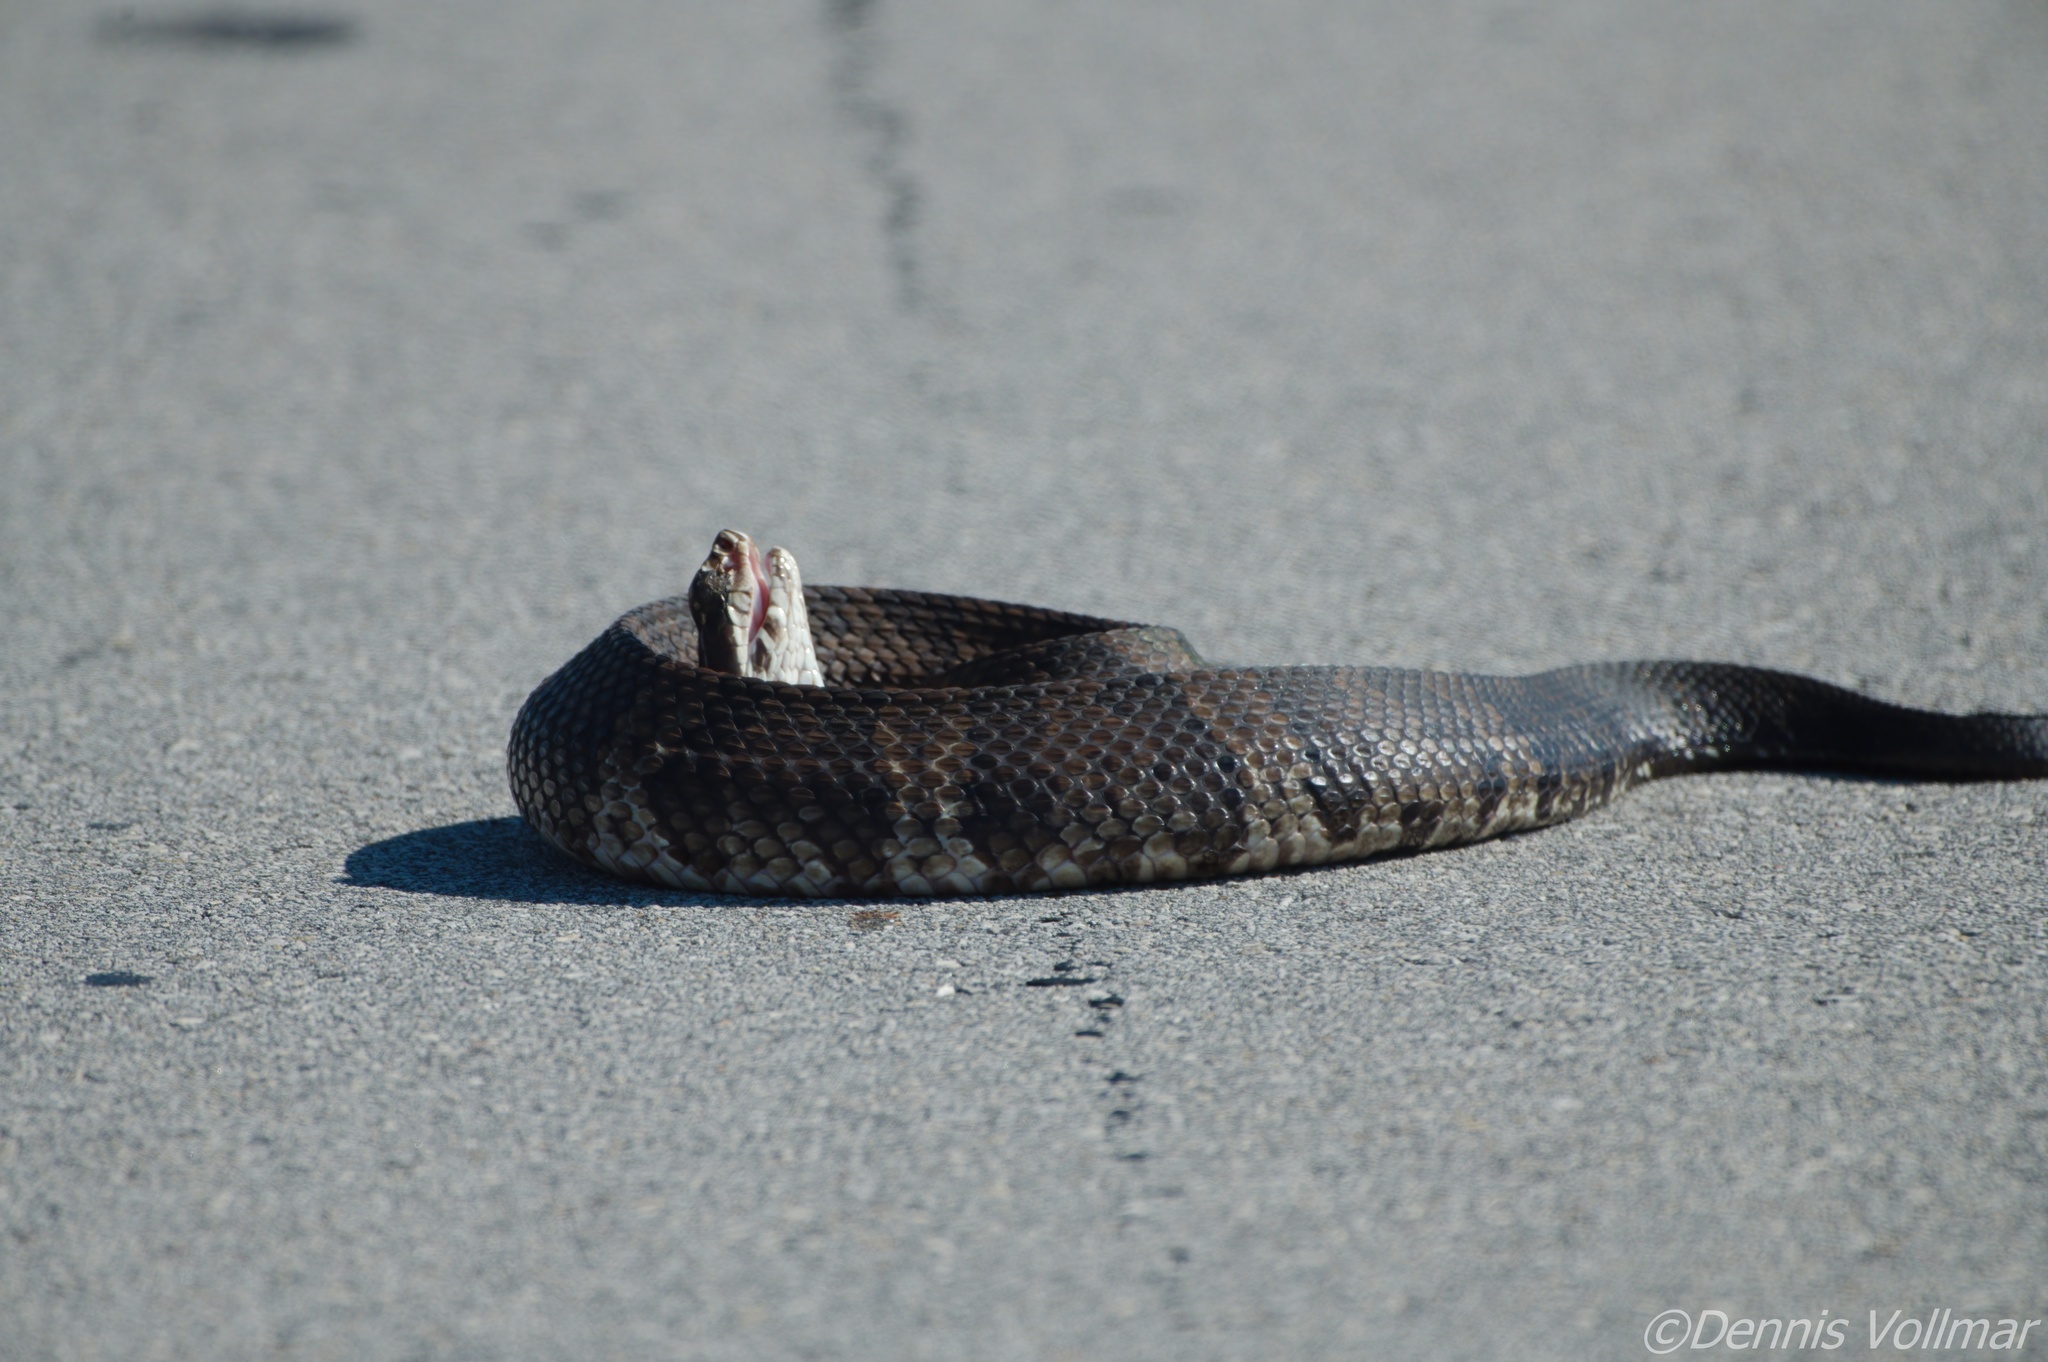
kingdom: Animalia
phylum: Chordata
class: Squamata
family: Viperidae
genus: Agkistrodon
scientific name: Agkistrodon conanti
